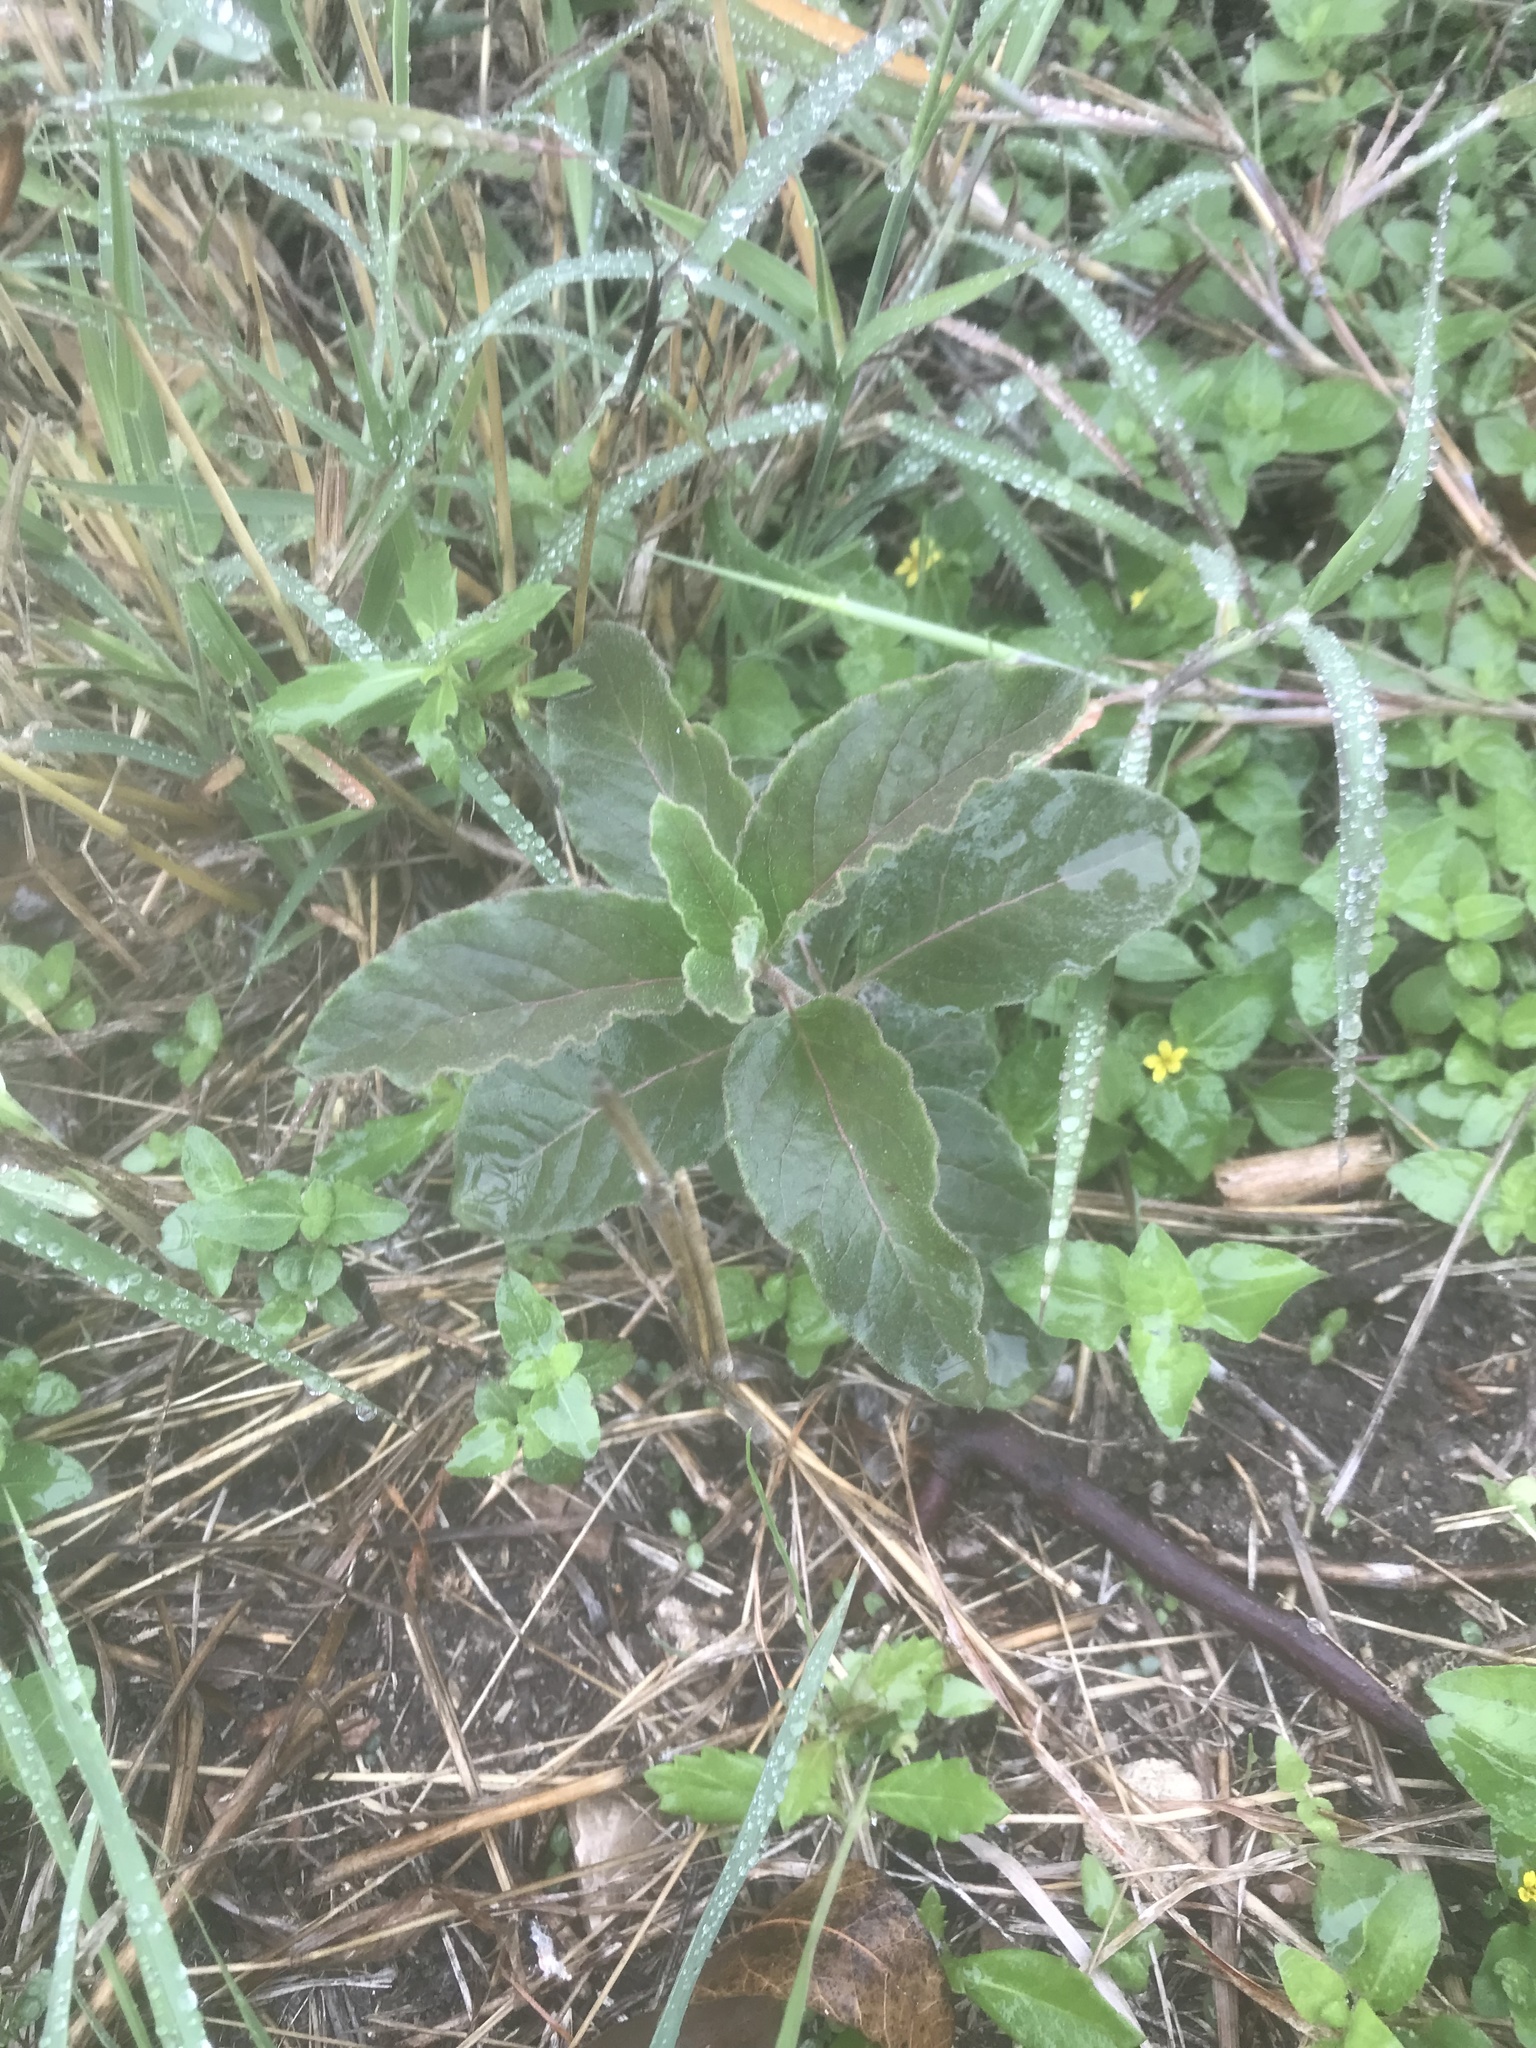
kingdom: Plantae
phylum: Tracheophyta
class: Magnoliopsida
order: Gentianales
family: Apocynaceae
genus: Asclepias
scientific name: Asclepias oenotheroides
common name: Zizotes milkweed
